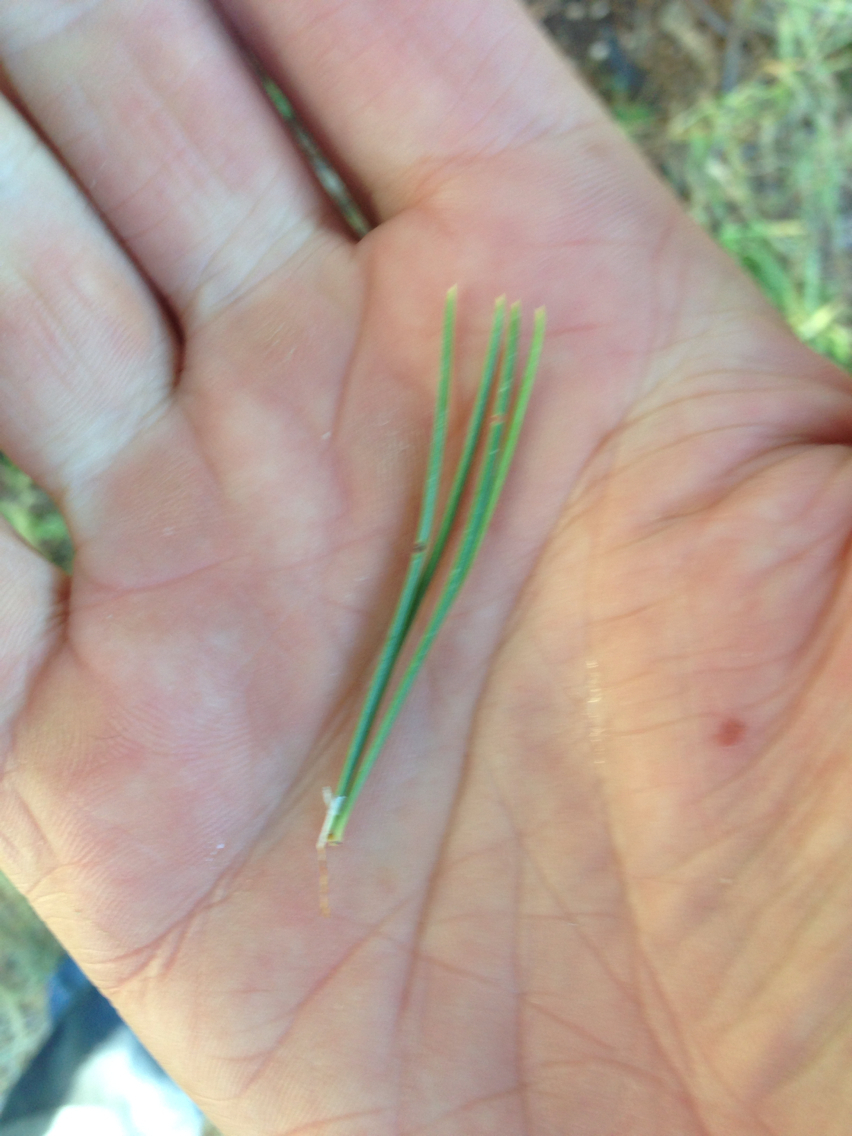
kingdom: Plantae
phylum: Tracheophyta
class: Pinopsida
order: Pinales
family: Pinaceae
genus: Pinus
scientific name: Pinus flexilis
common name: Limber pine
